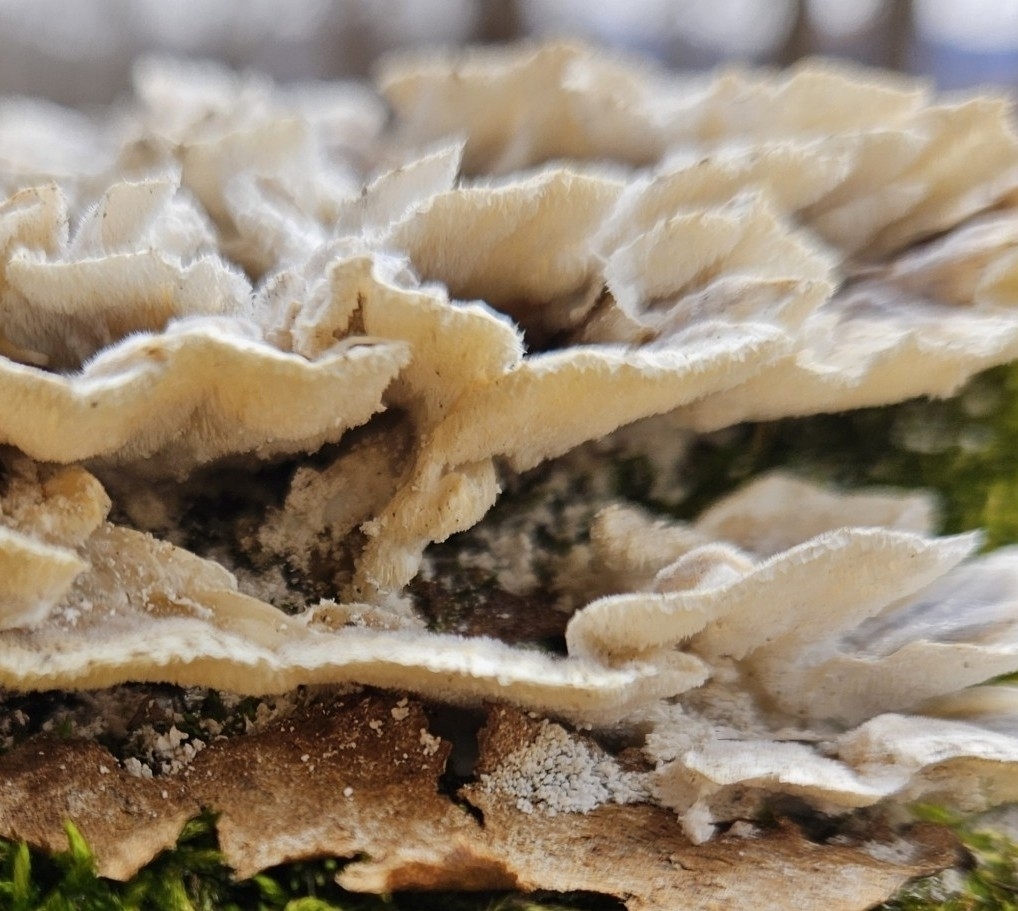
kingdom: Fungi
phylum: Basidiomycota
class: Agaricomycetes
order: Polyporales
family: Polyporaceae
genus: Trametes
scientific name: Trametes versicolor
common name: Turkeytail
